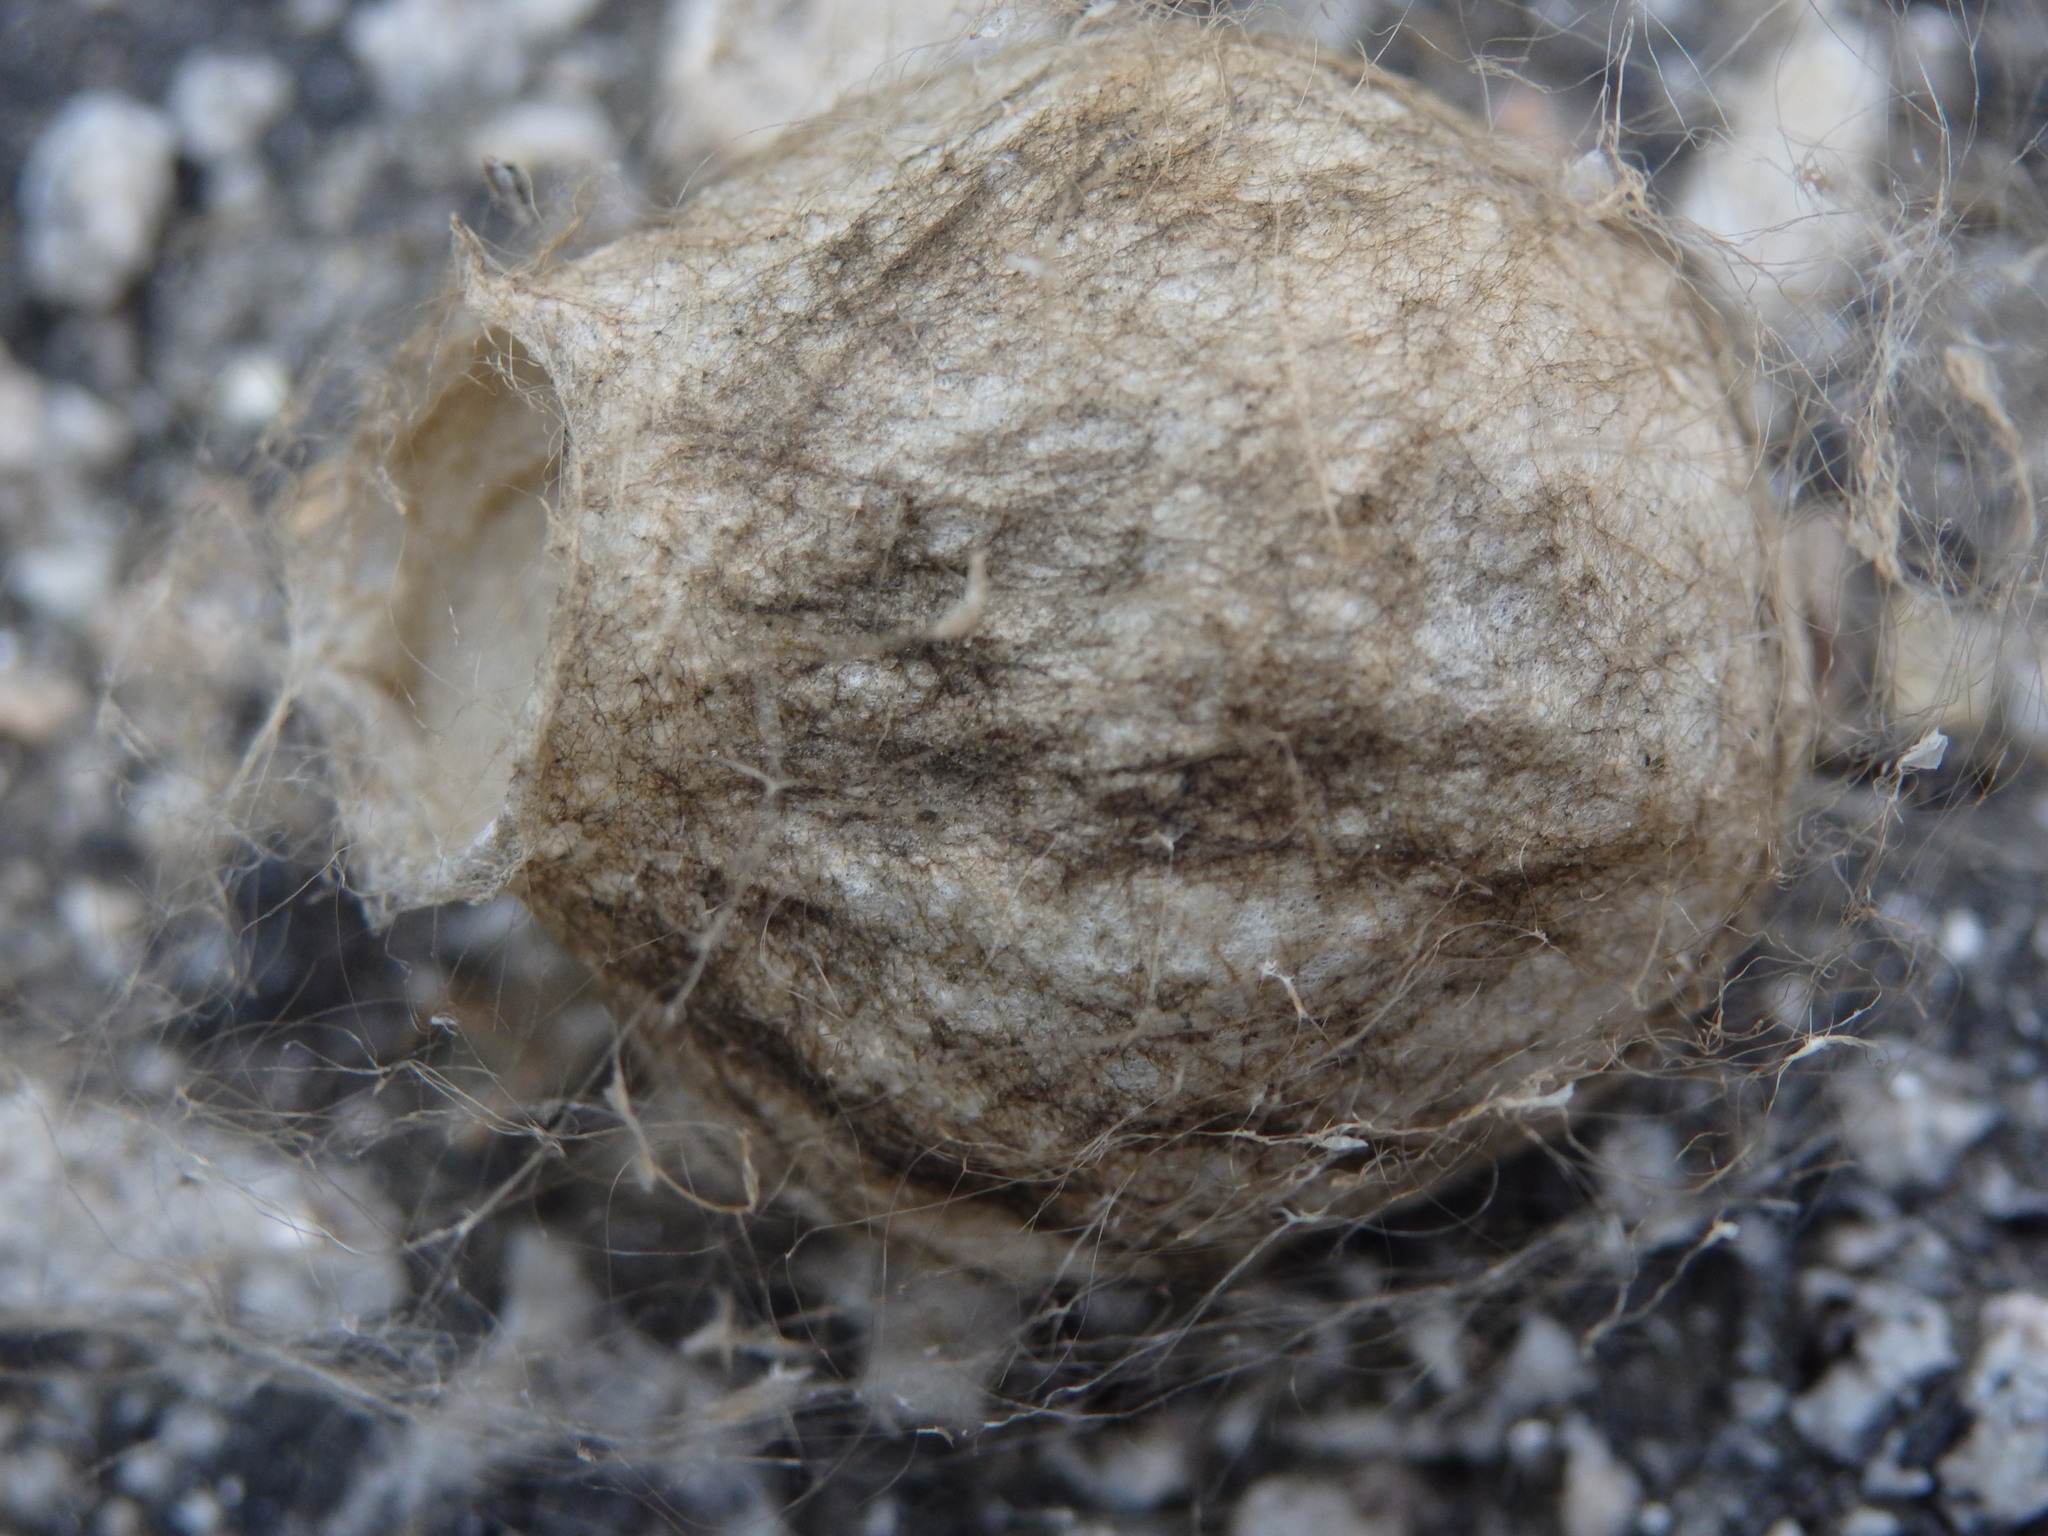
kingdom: Animalia
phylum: Arthropoda
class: Arachnida
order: Araneae
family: Araneidae
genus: Argiope
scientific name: Argiope bruennichi
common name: Wasp spider
